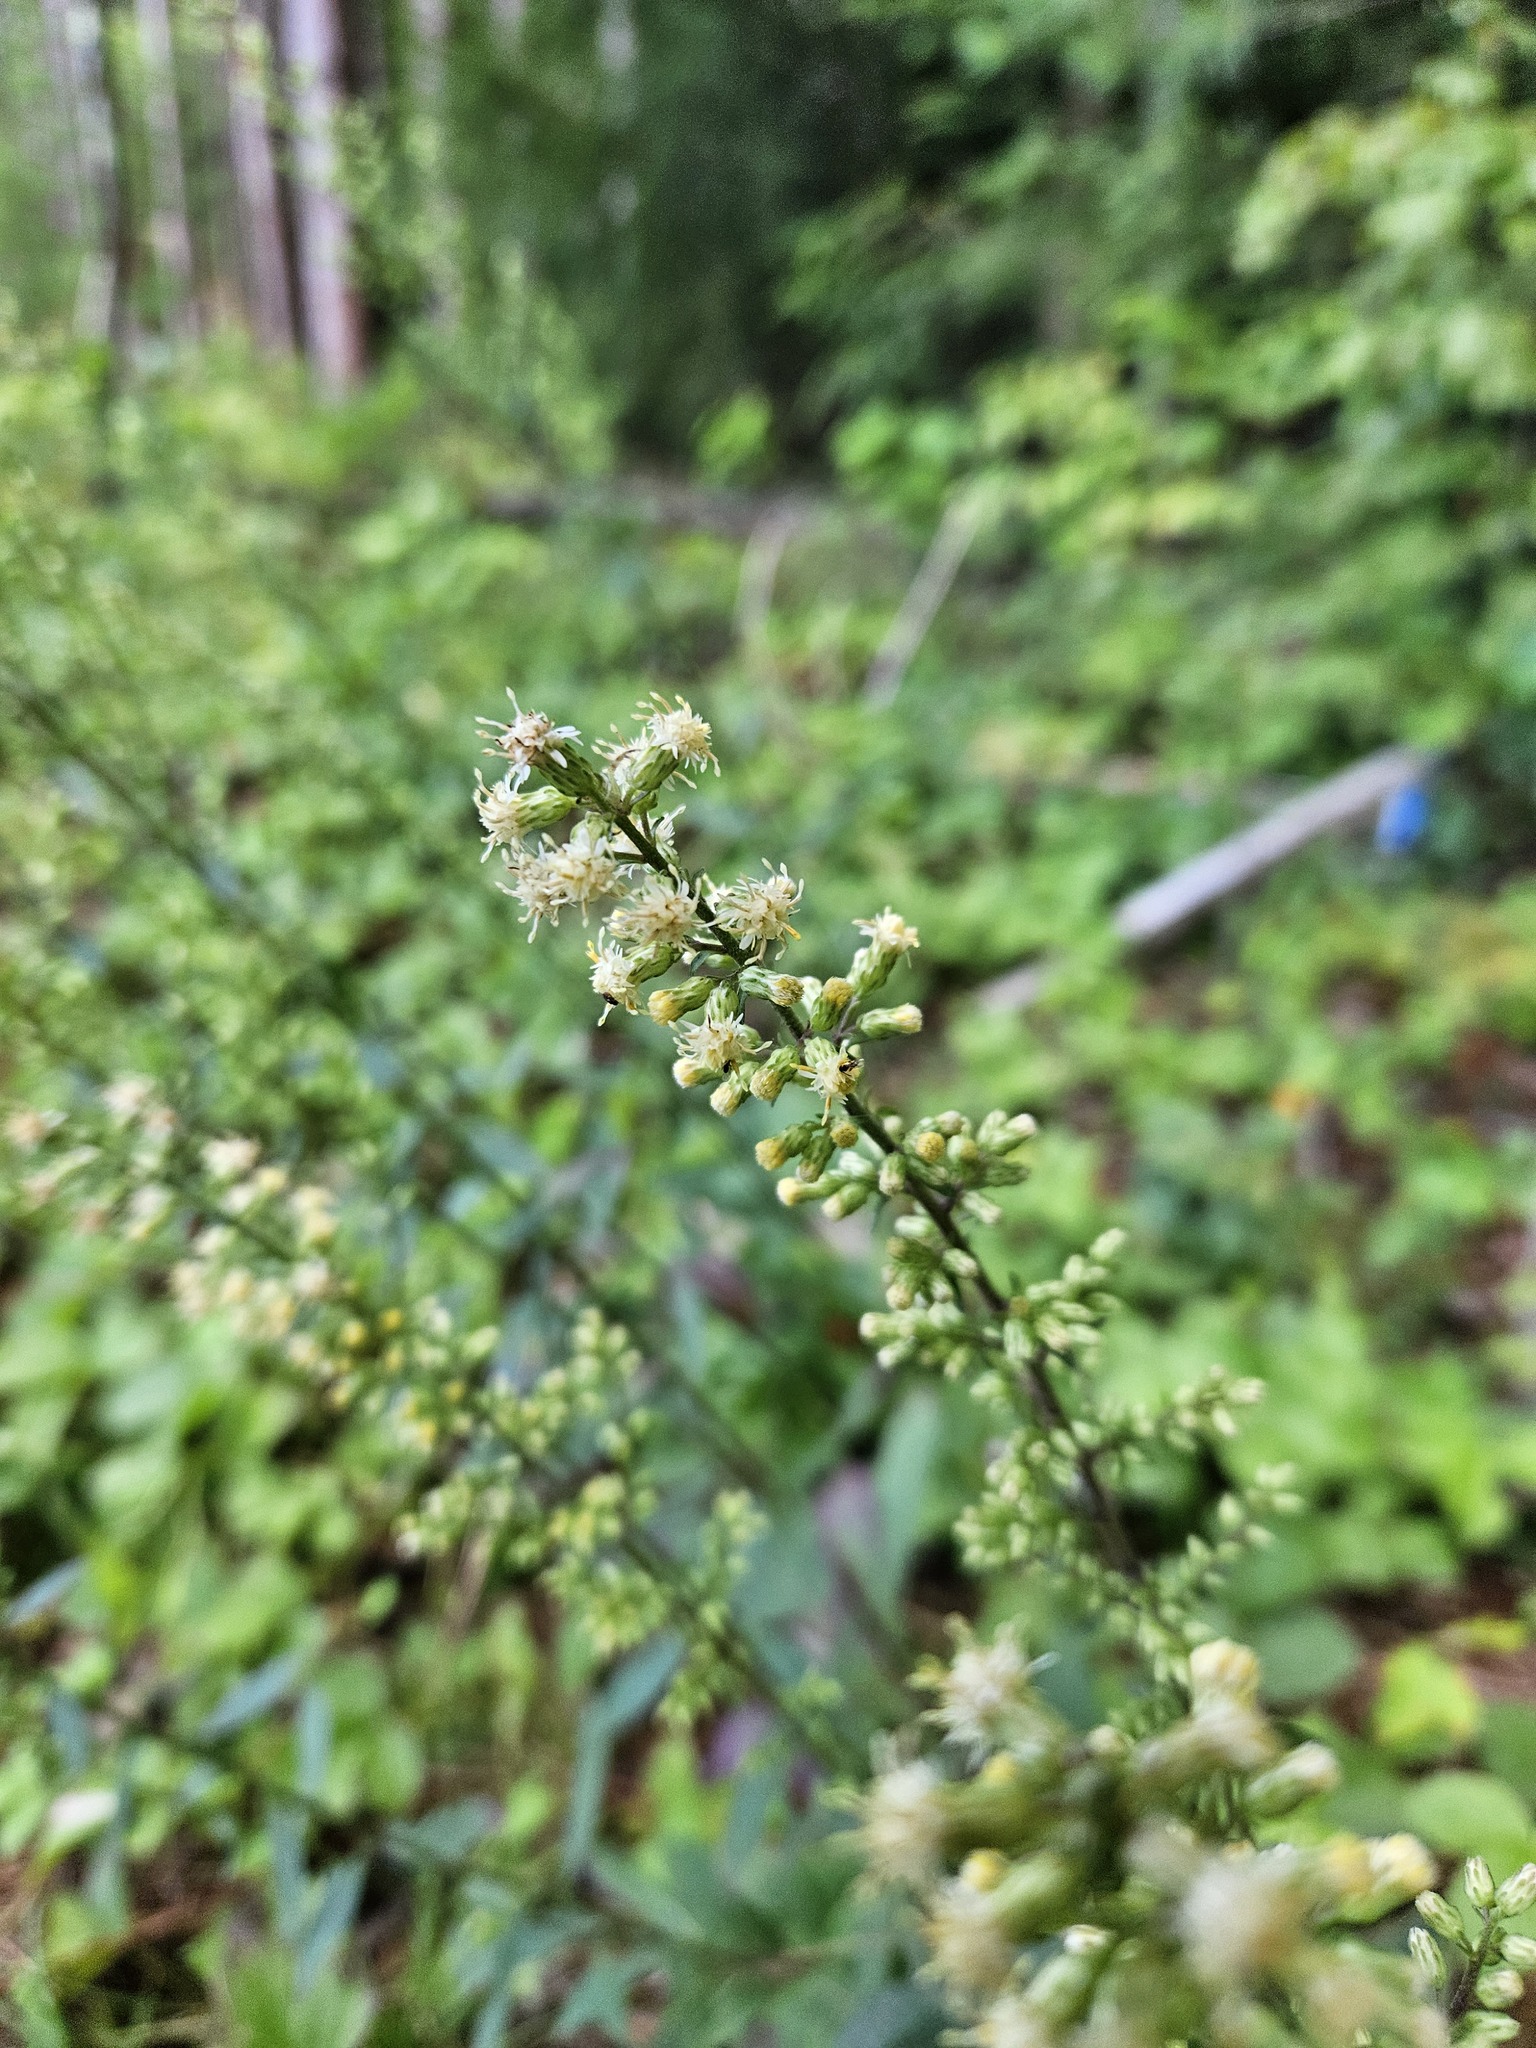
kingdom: Plantae
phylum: Tracheophyta
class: Magnoliopsida
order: Asterales
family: Asteraceae
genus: Solidago
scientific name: Solidago bicolor
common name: Silverrod
